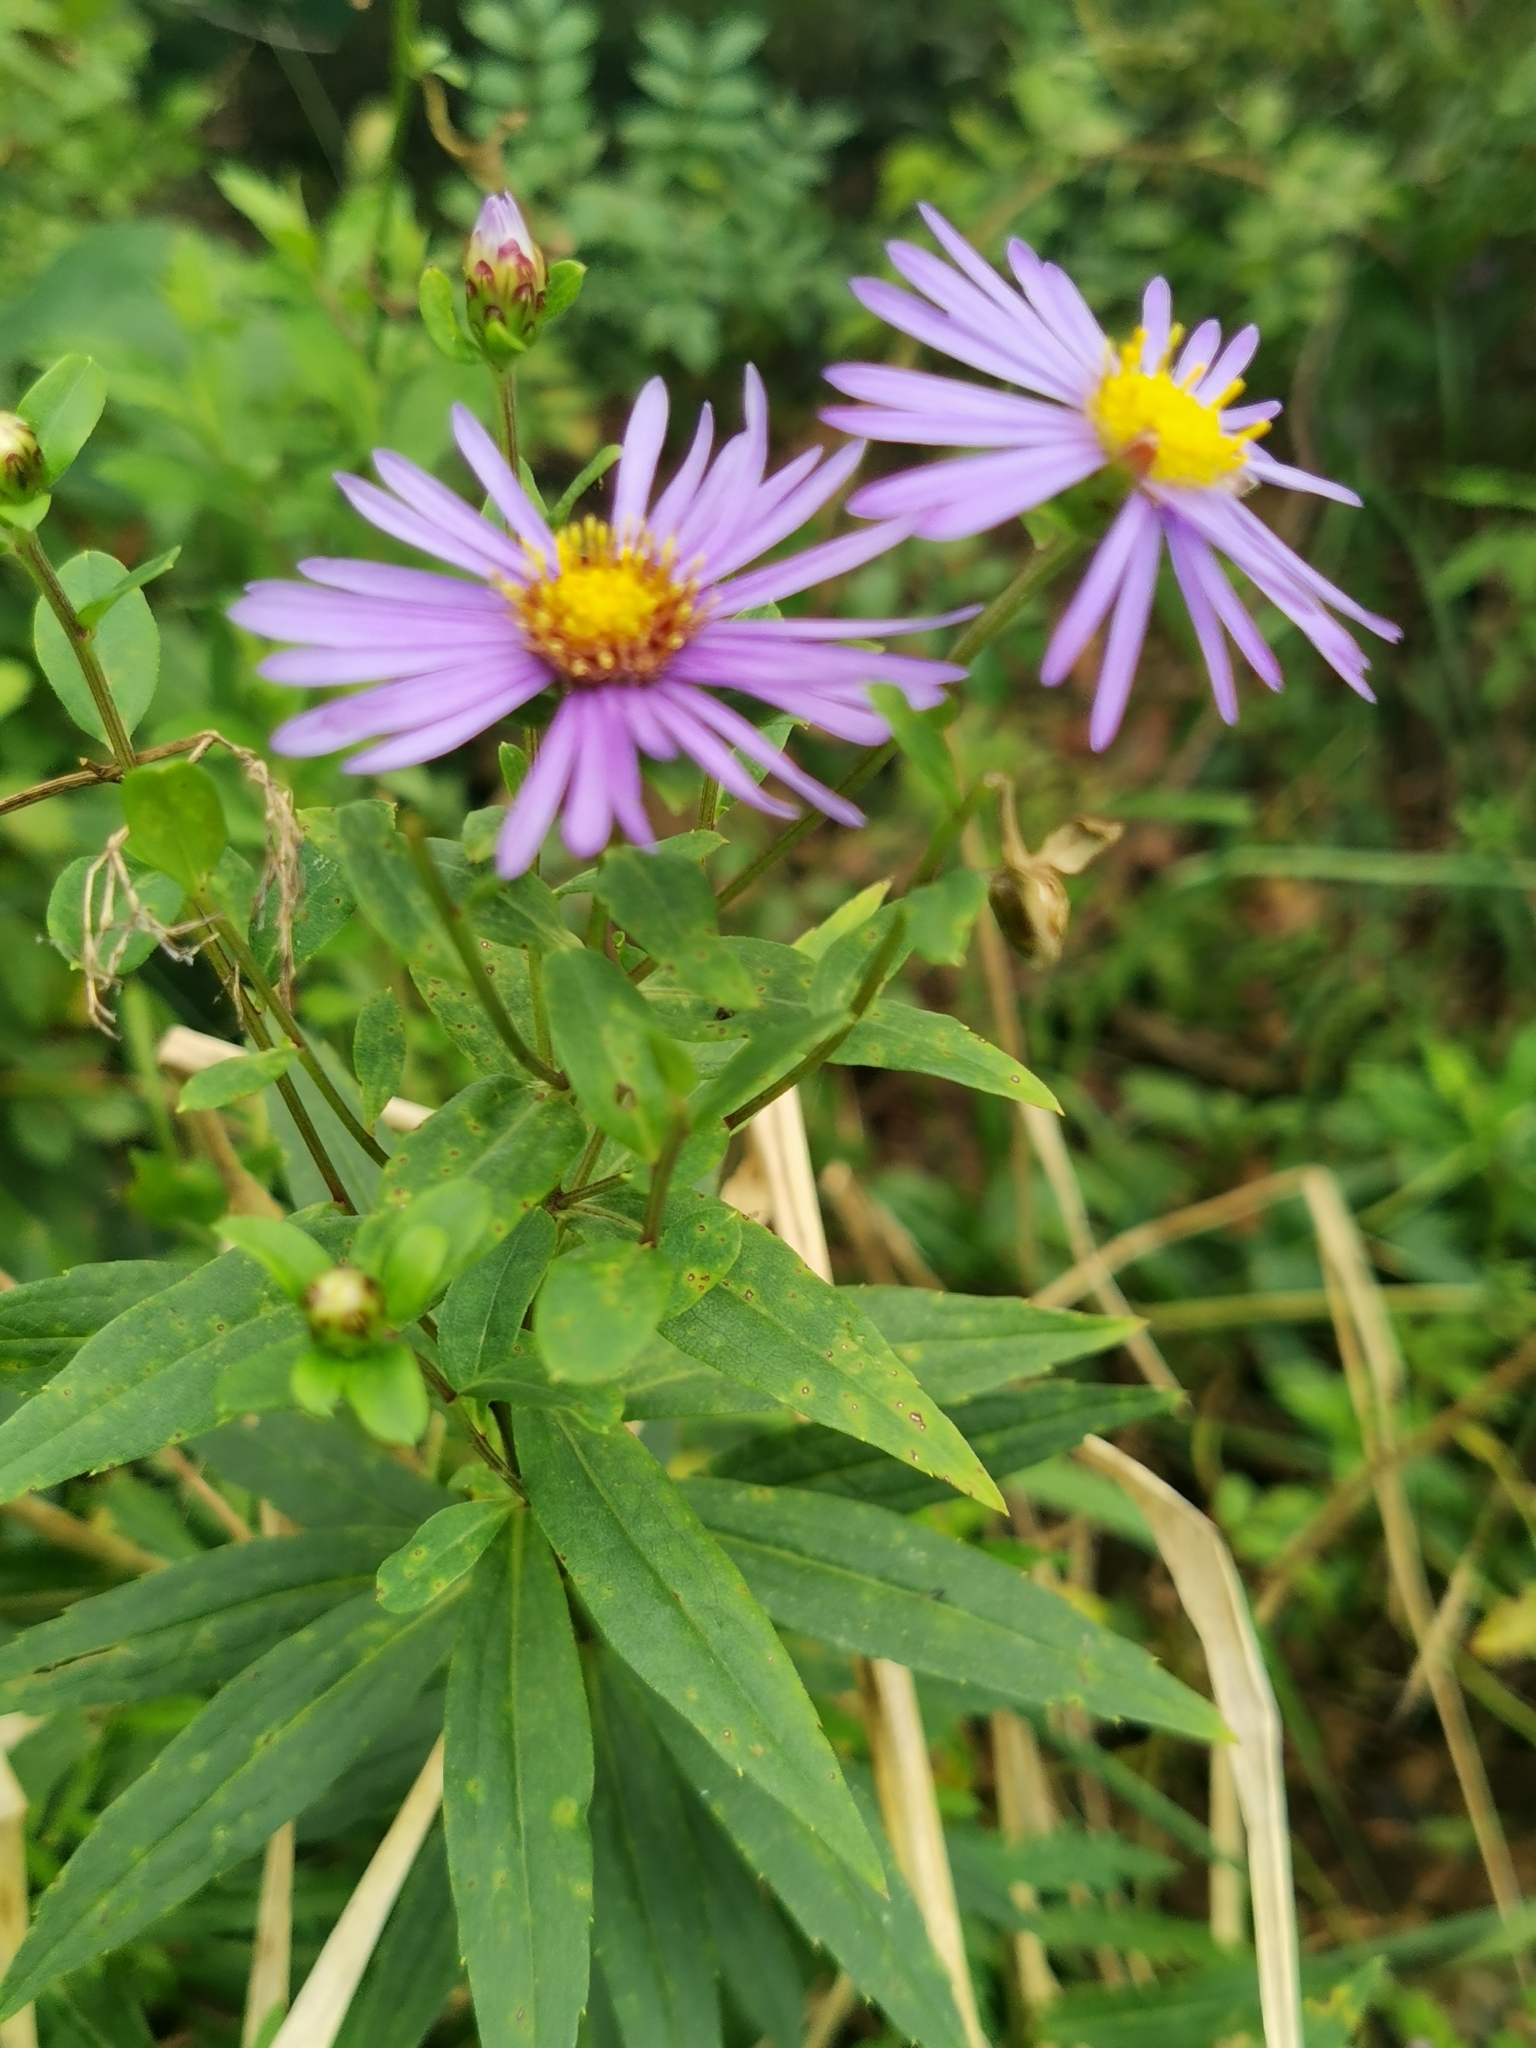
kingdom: Plantae
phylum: Tracheophyta
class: Magnoliopsida
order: Asterales
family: Asteraceae
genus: Aster
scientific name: Aster maackii
